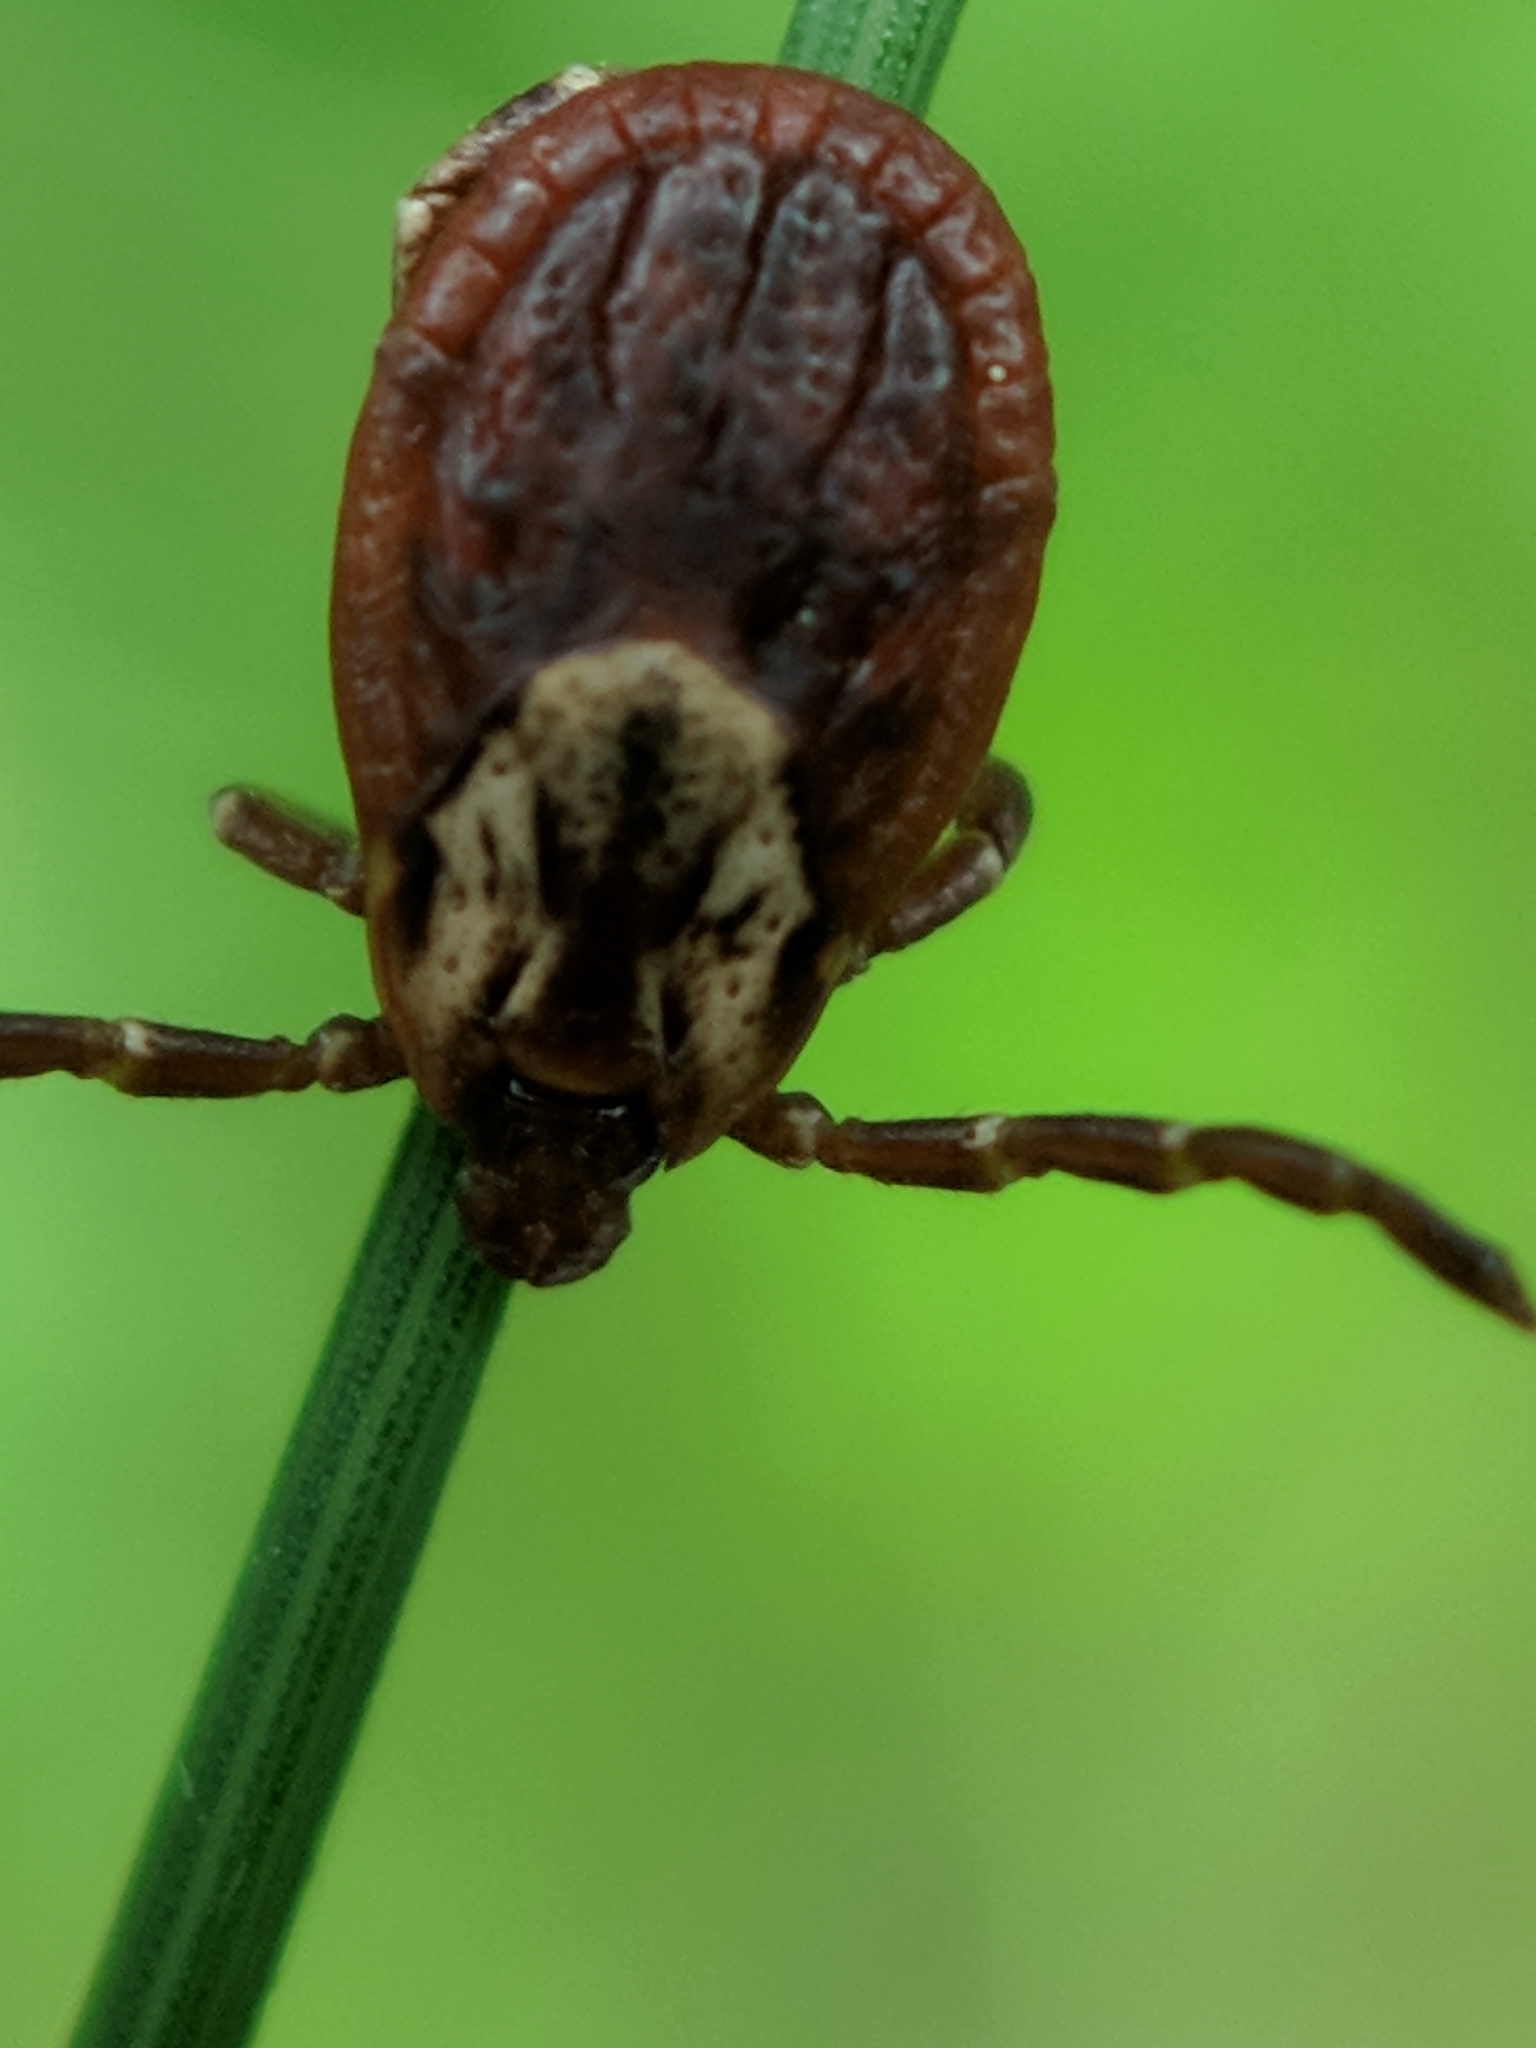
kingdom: Animalia
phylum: Arthropoda
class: Arachnida
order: Ixodida
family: Ixodidae
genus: Dermacentor
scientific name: Dermacentor variabilis
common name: American dog tick
